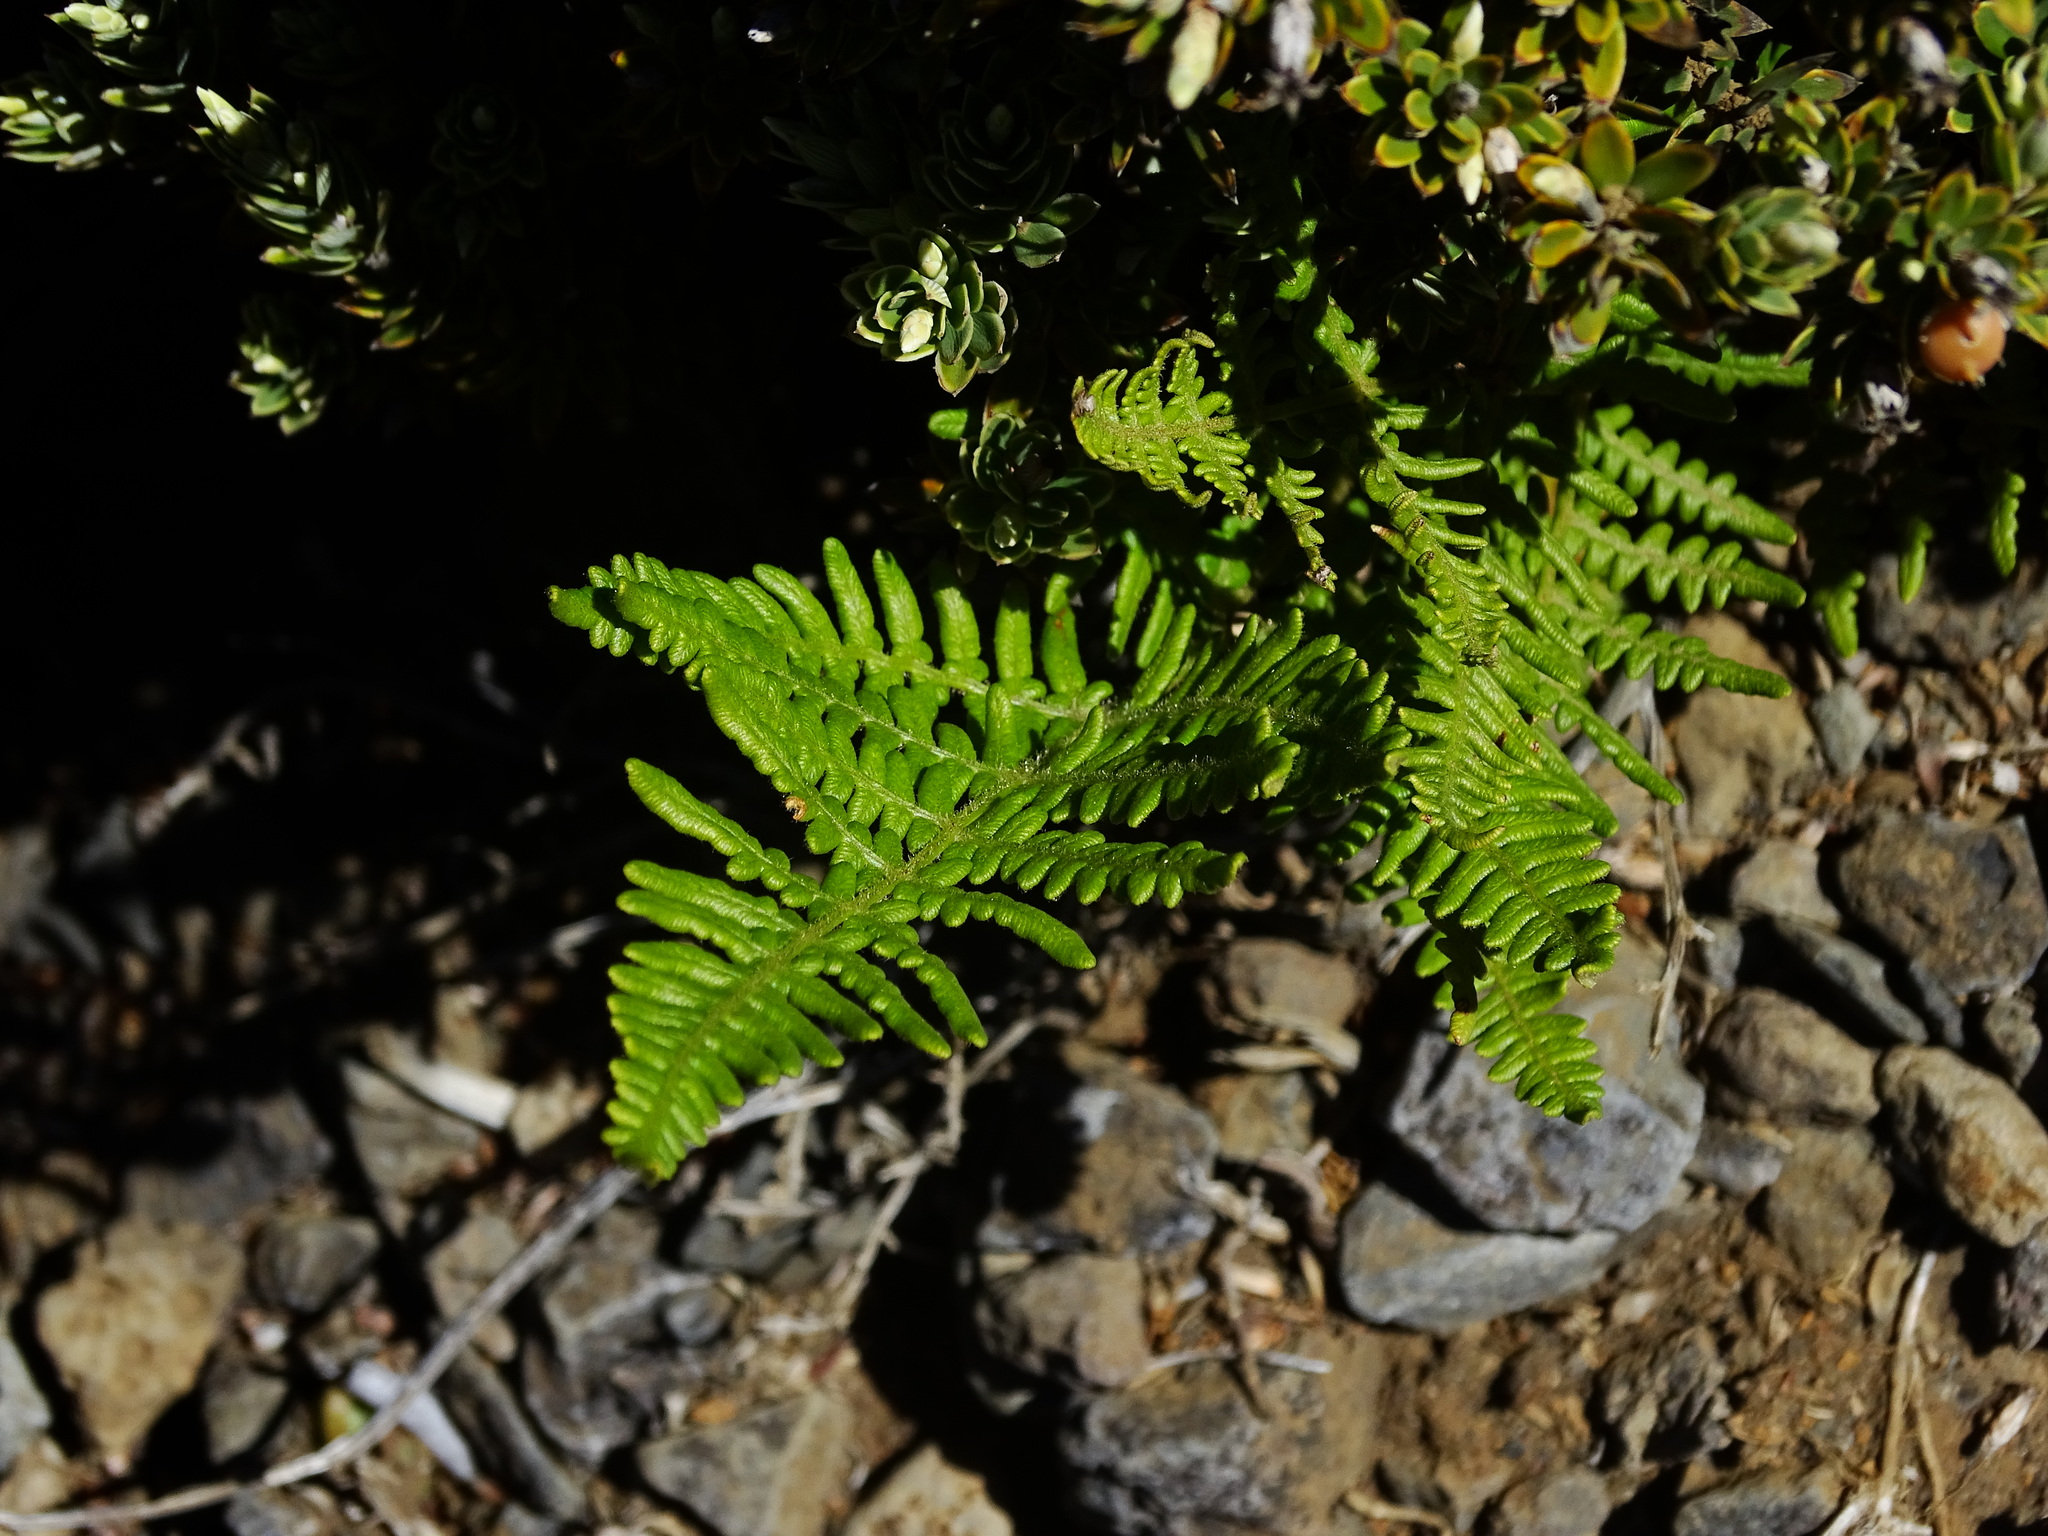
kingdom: Plantae
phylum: Tracheophyta
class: Polypodiopsida
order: Polypodiales
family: Dennstaedtiaceae
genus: Pteridium
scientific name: Pteridium aquilinum
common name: Bracken
